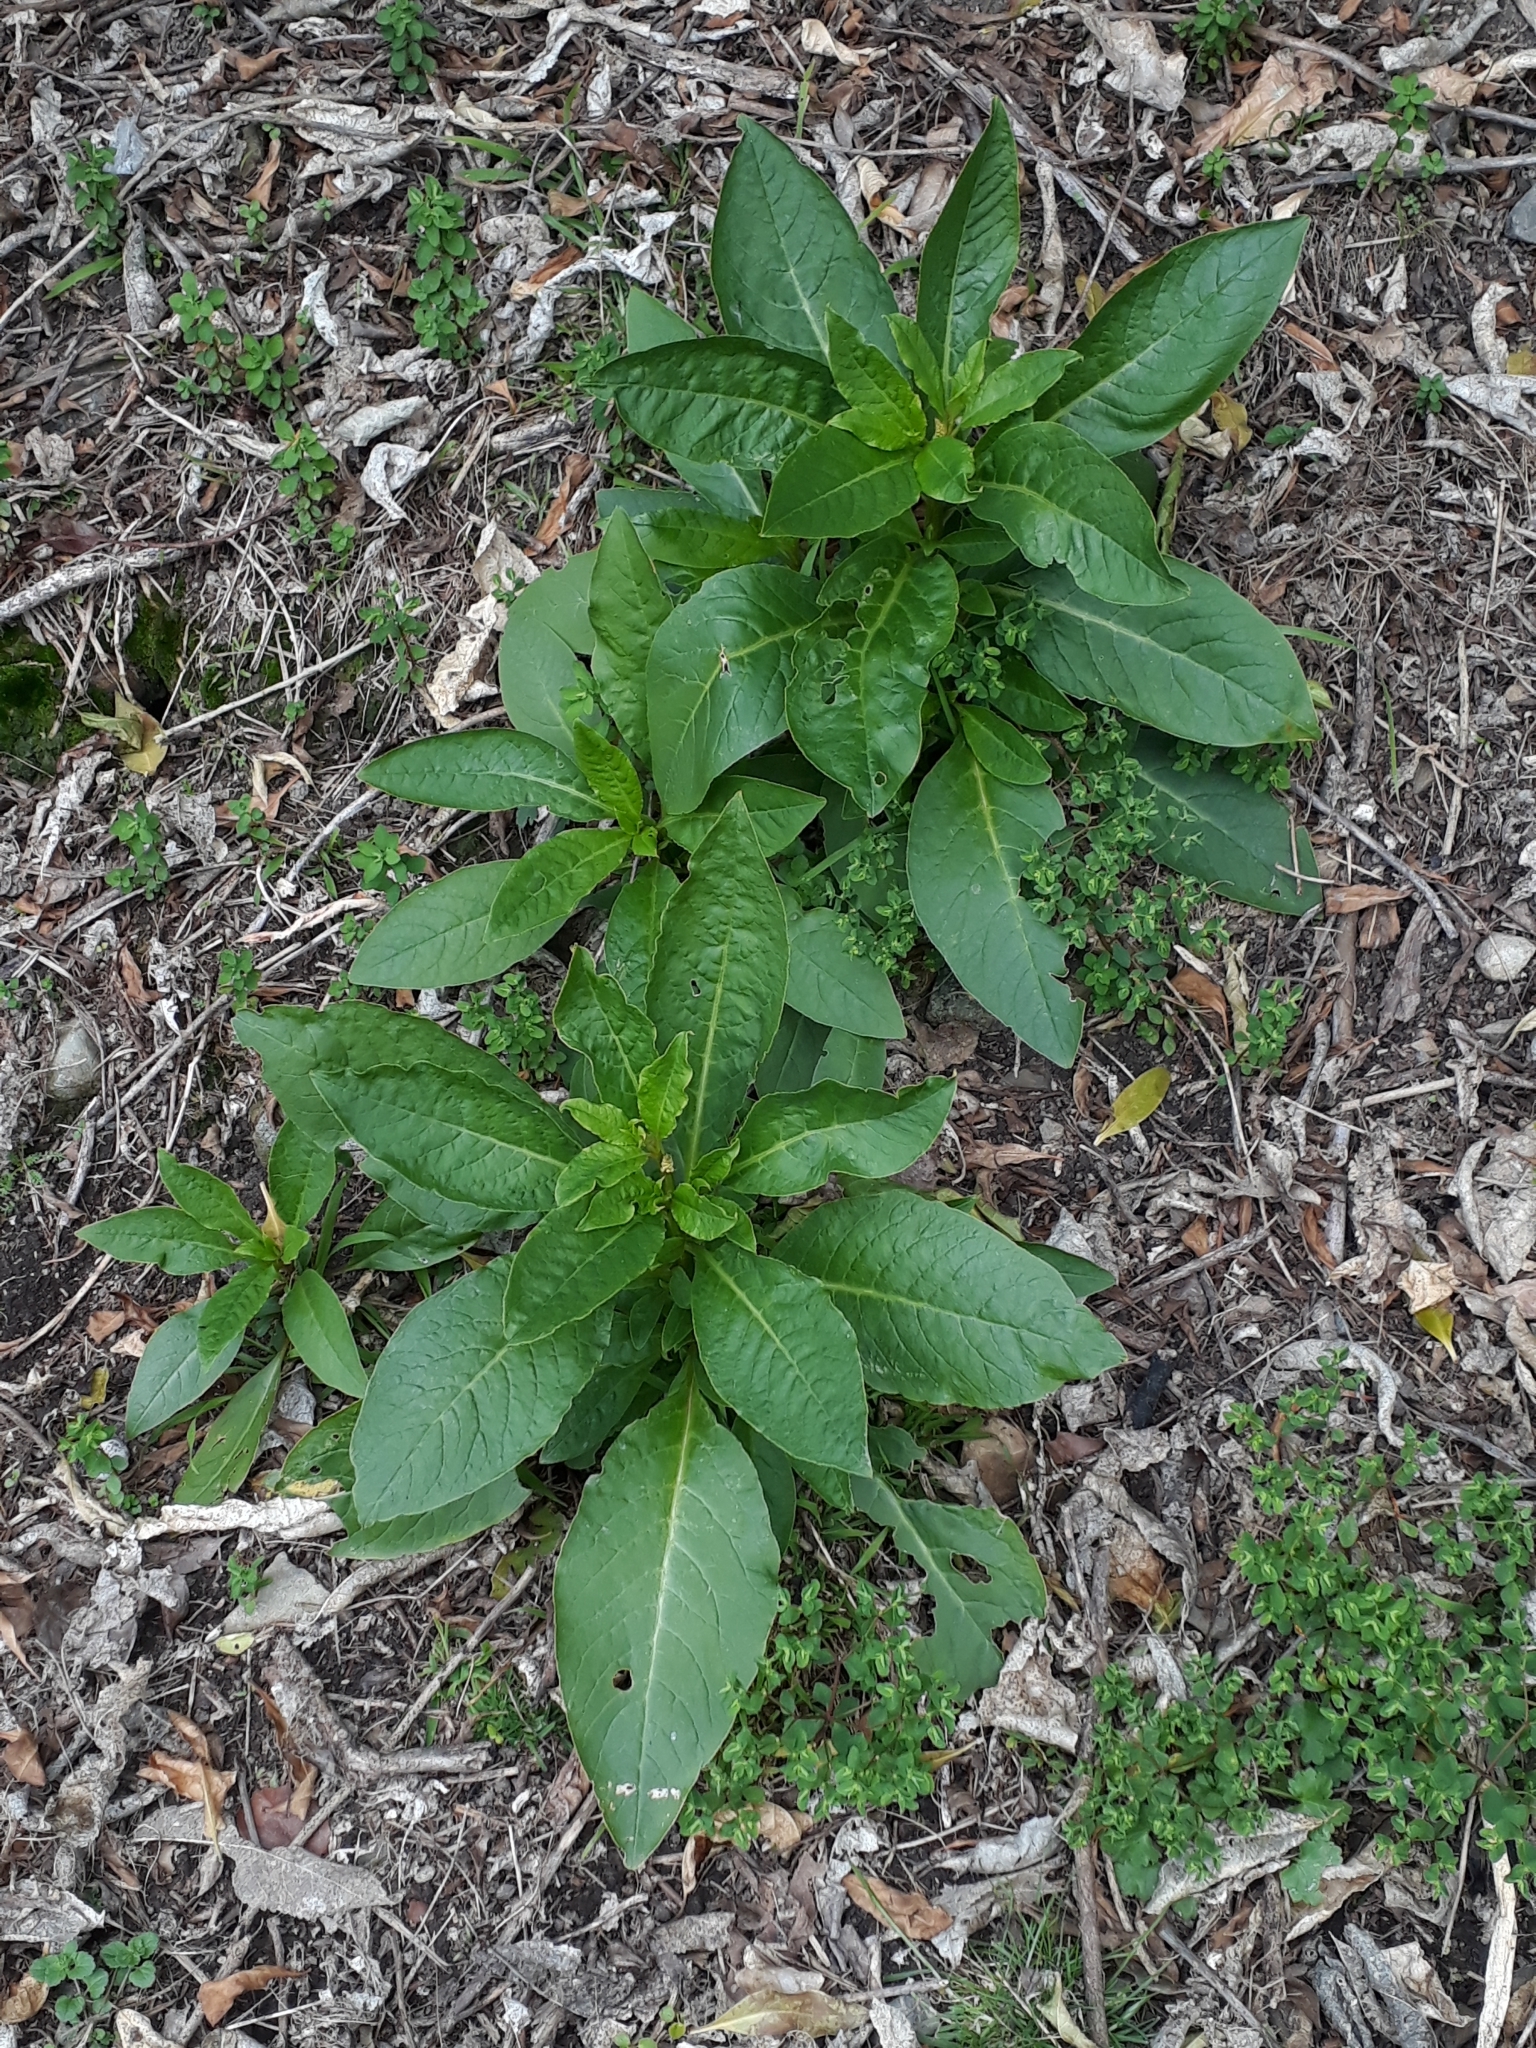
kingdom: Plantae
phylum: Tracheophyta
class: Magnoliopsida
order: Caryophyllales
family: Phytolaccaceae
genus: Phytolacca
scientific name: Phytolacca icosandra
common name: Button pokeweed
